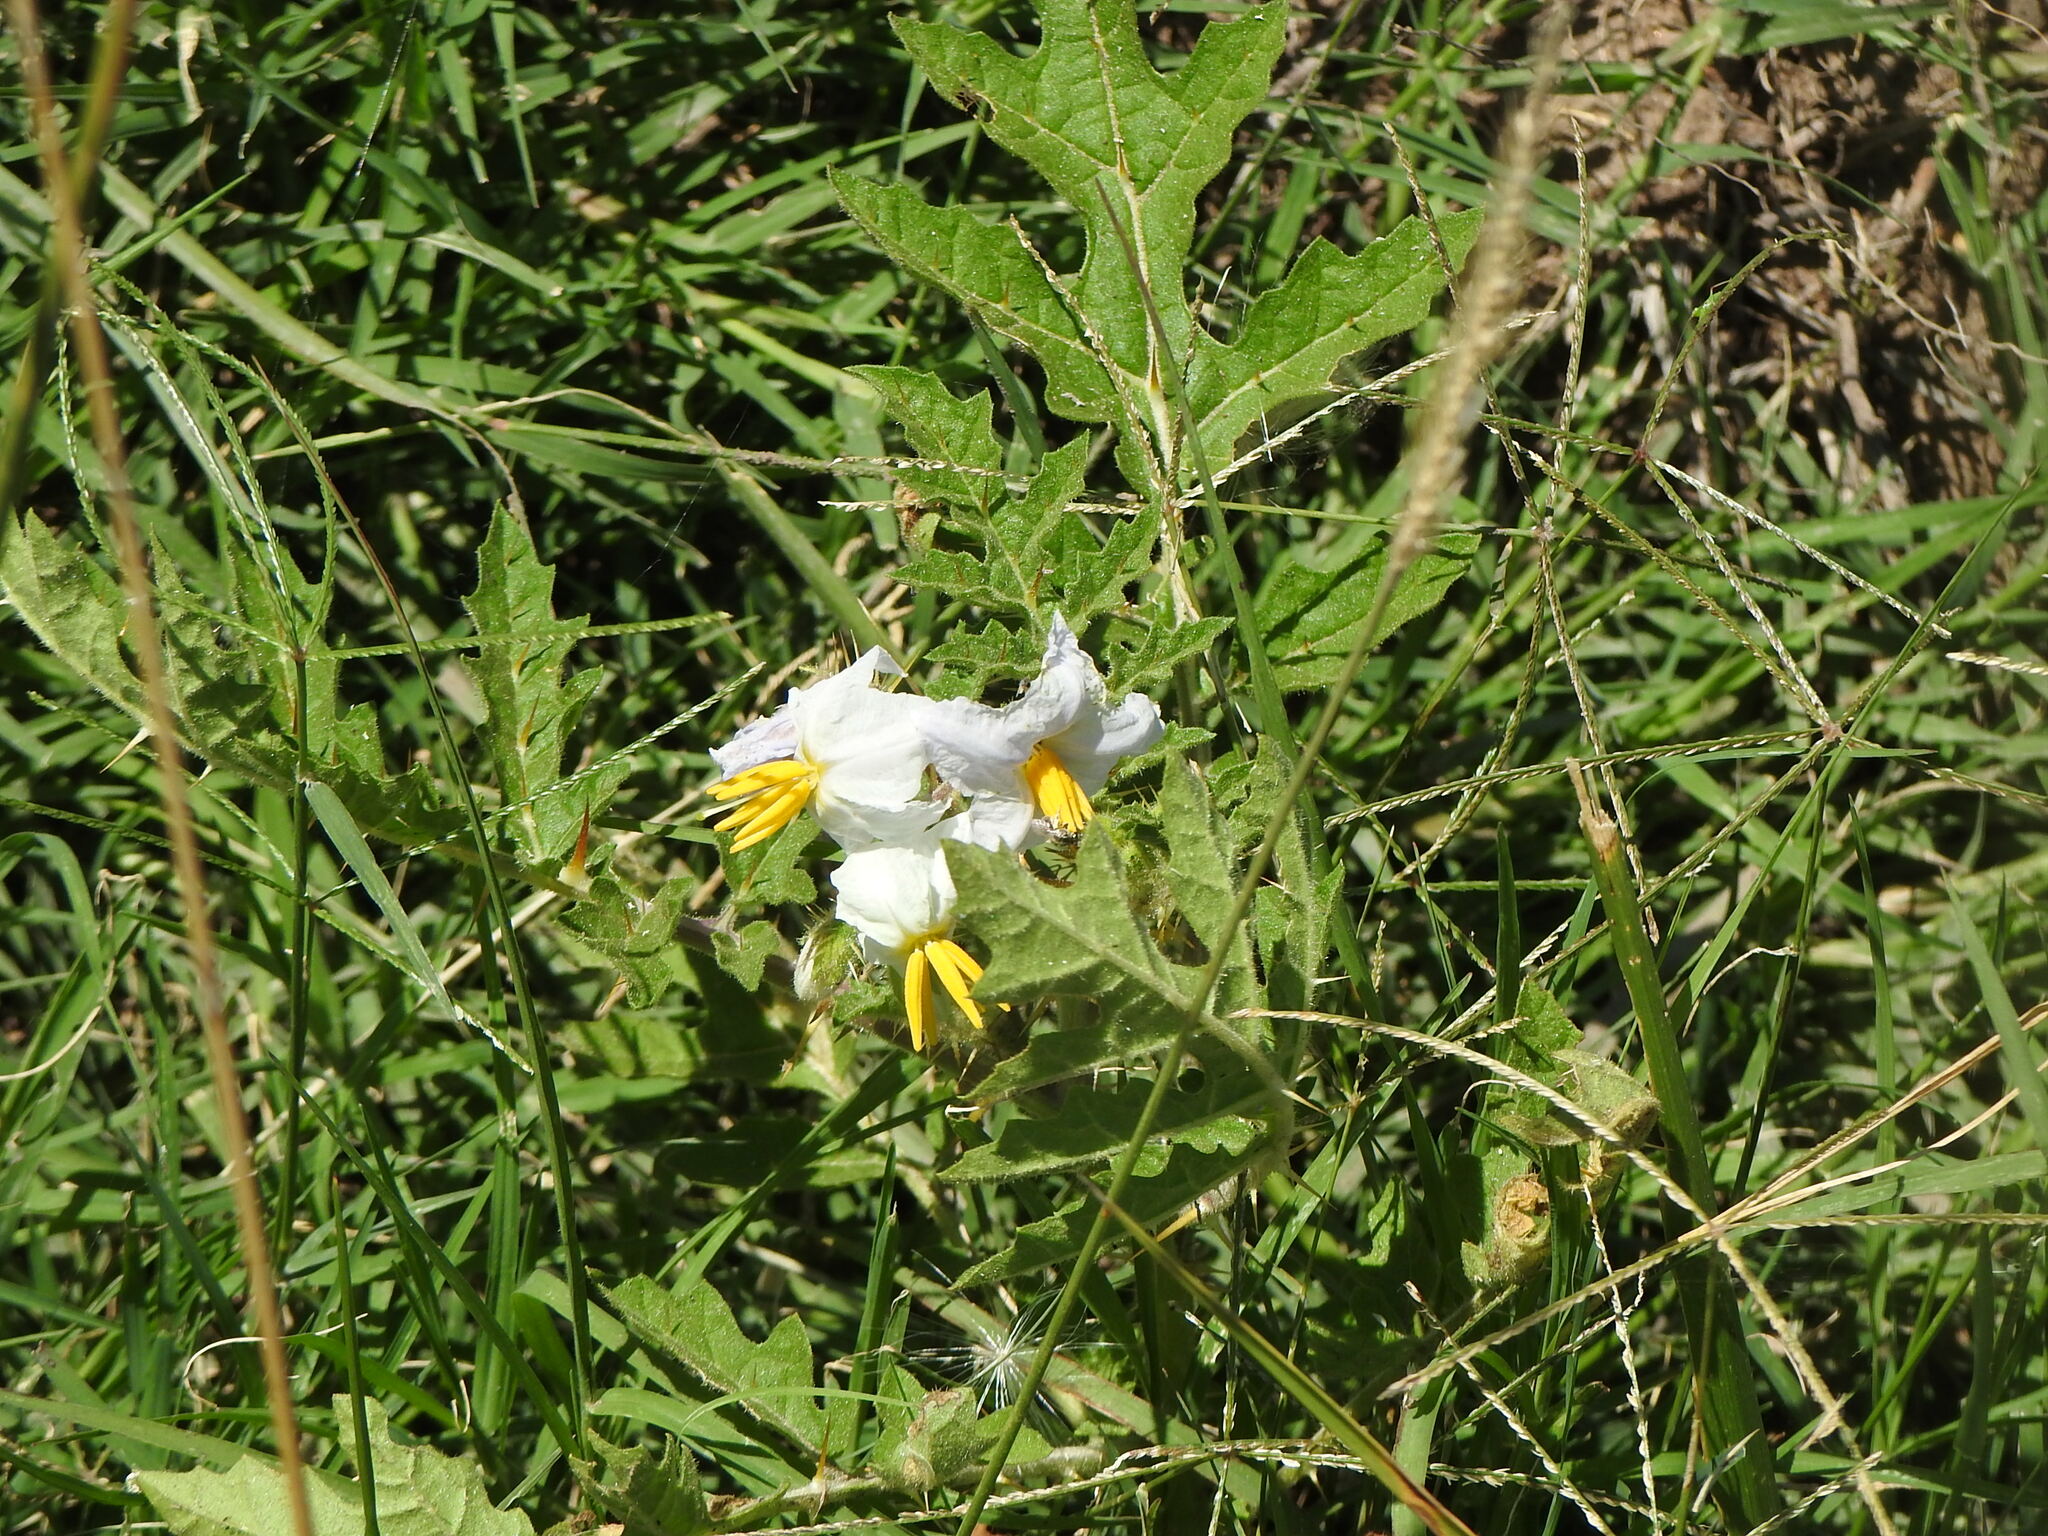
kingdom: Plantae
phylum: Tracheophyta
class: Magnoliopsida
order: Solanales
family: Solanaceae
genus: Solanum
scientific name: Solanum sisymbriifolium
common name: Red buffalo-bur
